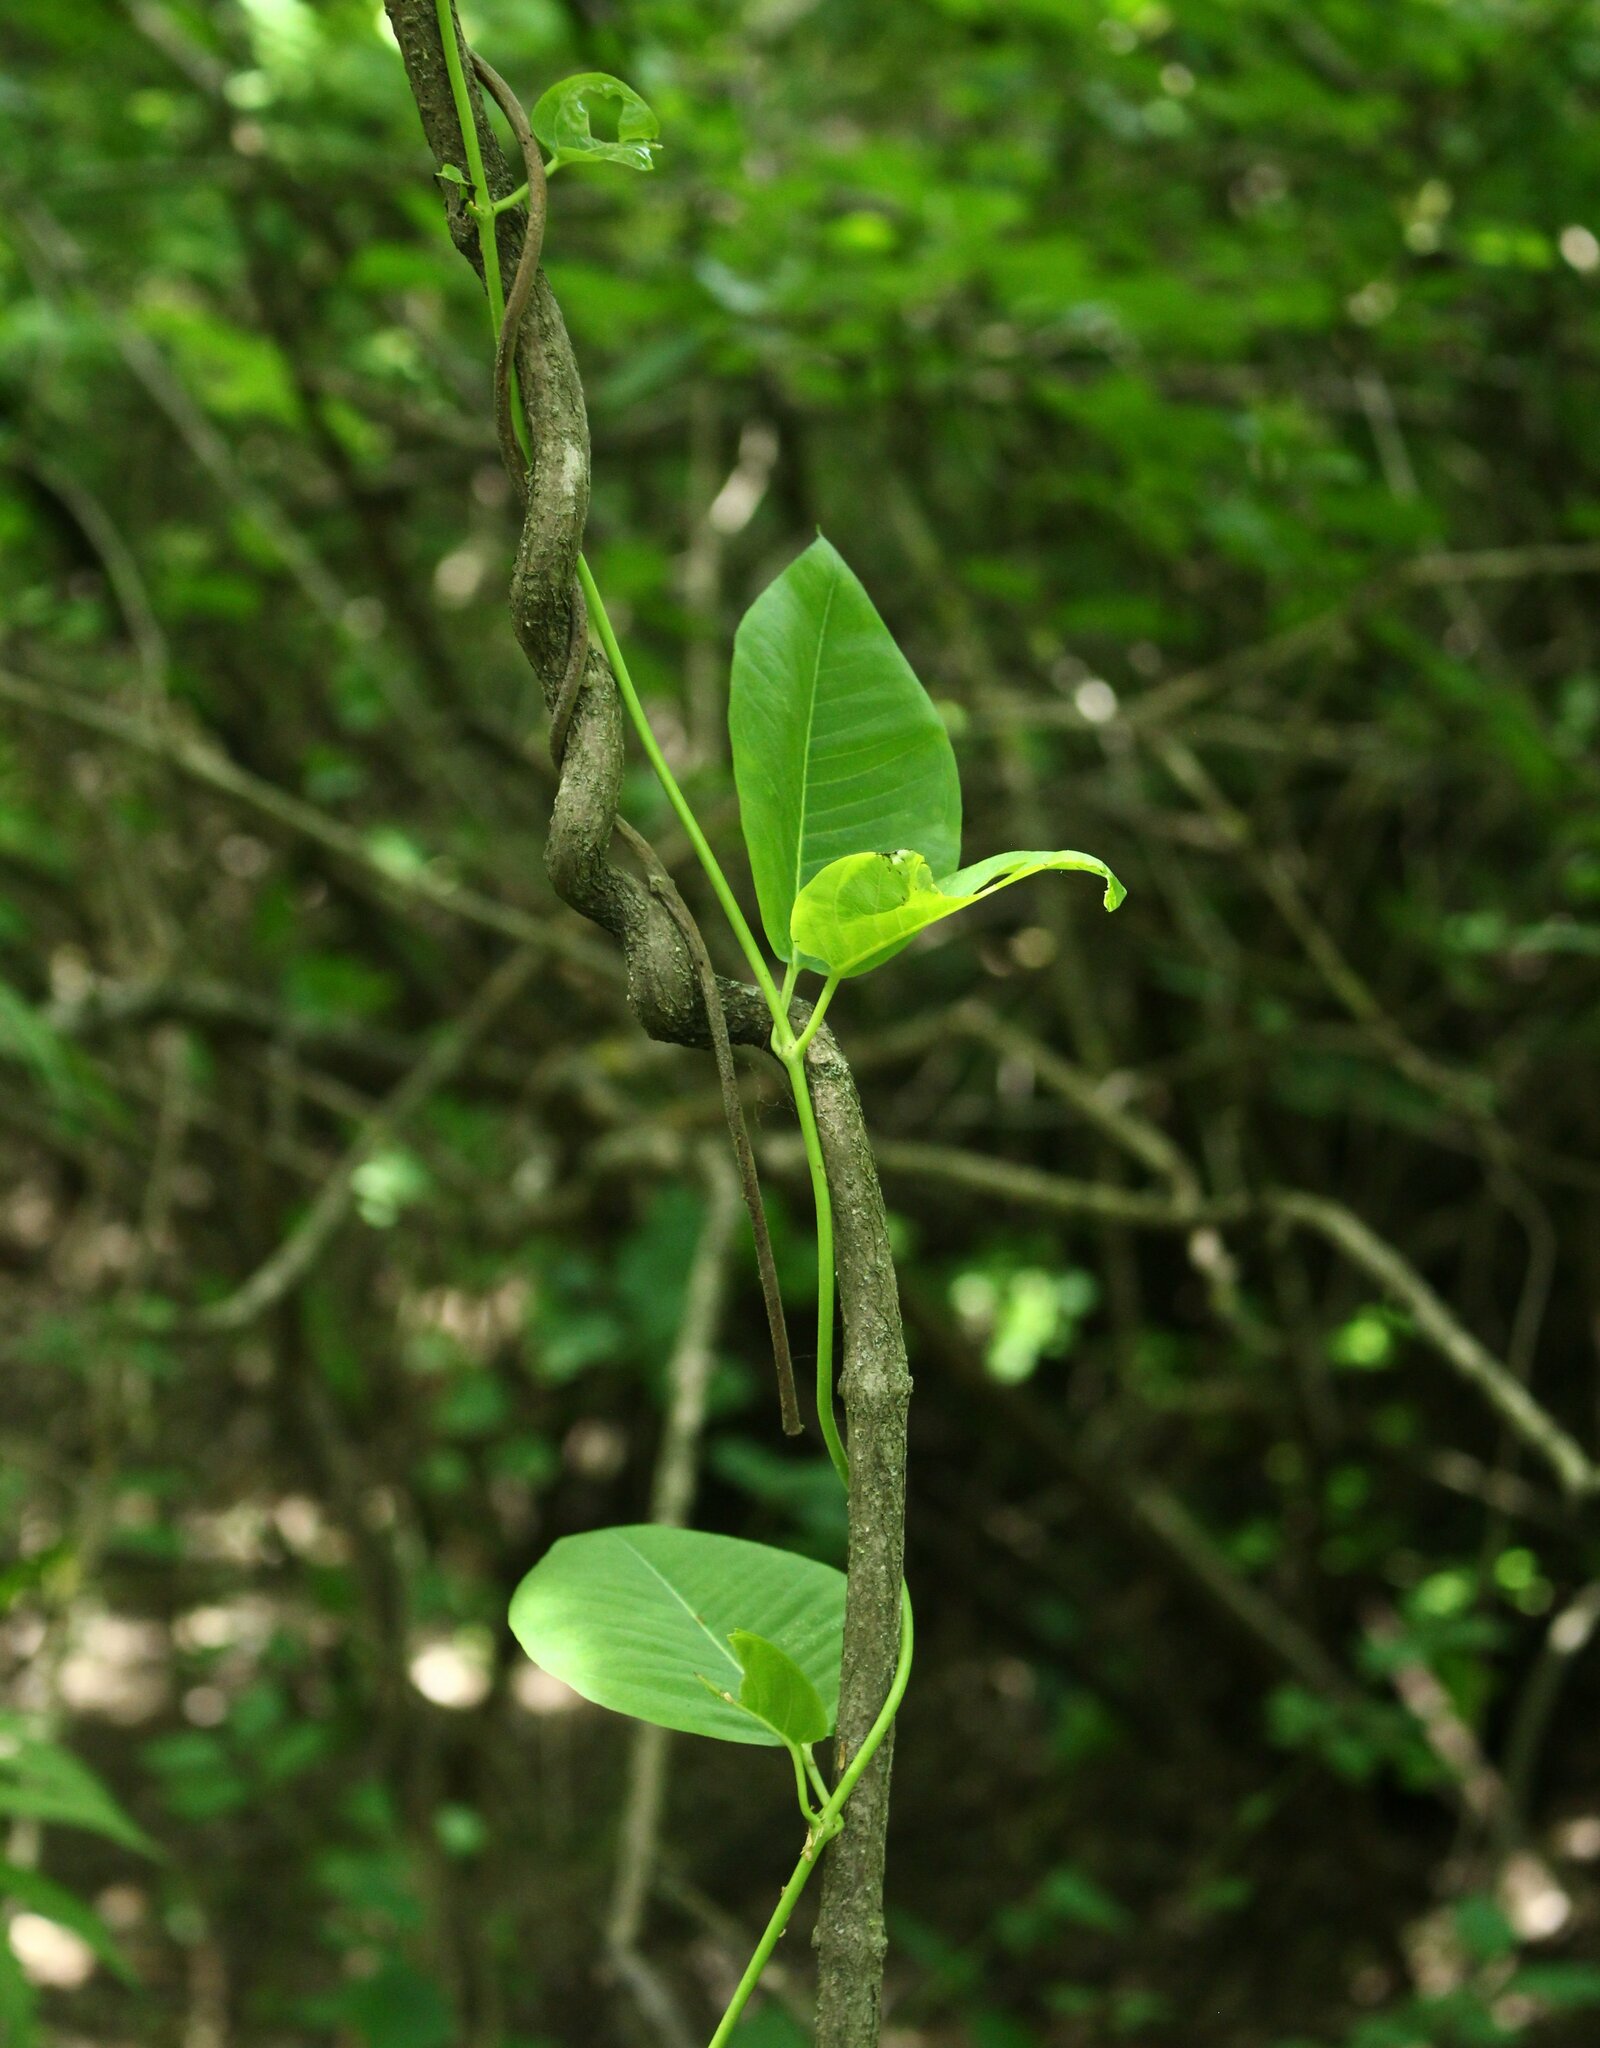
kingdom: Plantae
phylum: Tracheophyta
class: Magnoliopsida
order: Gentianales
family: Apocynaceae
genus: Periploca
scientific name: Periploca graeca
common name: Silkvine
